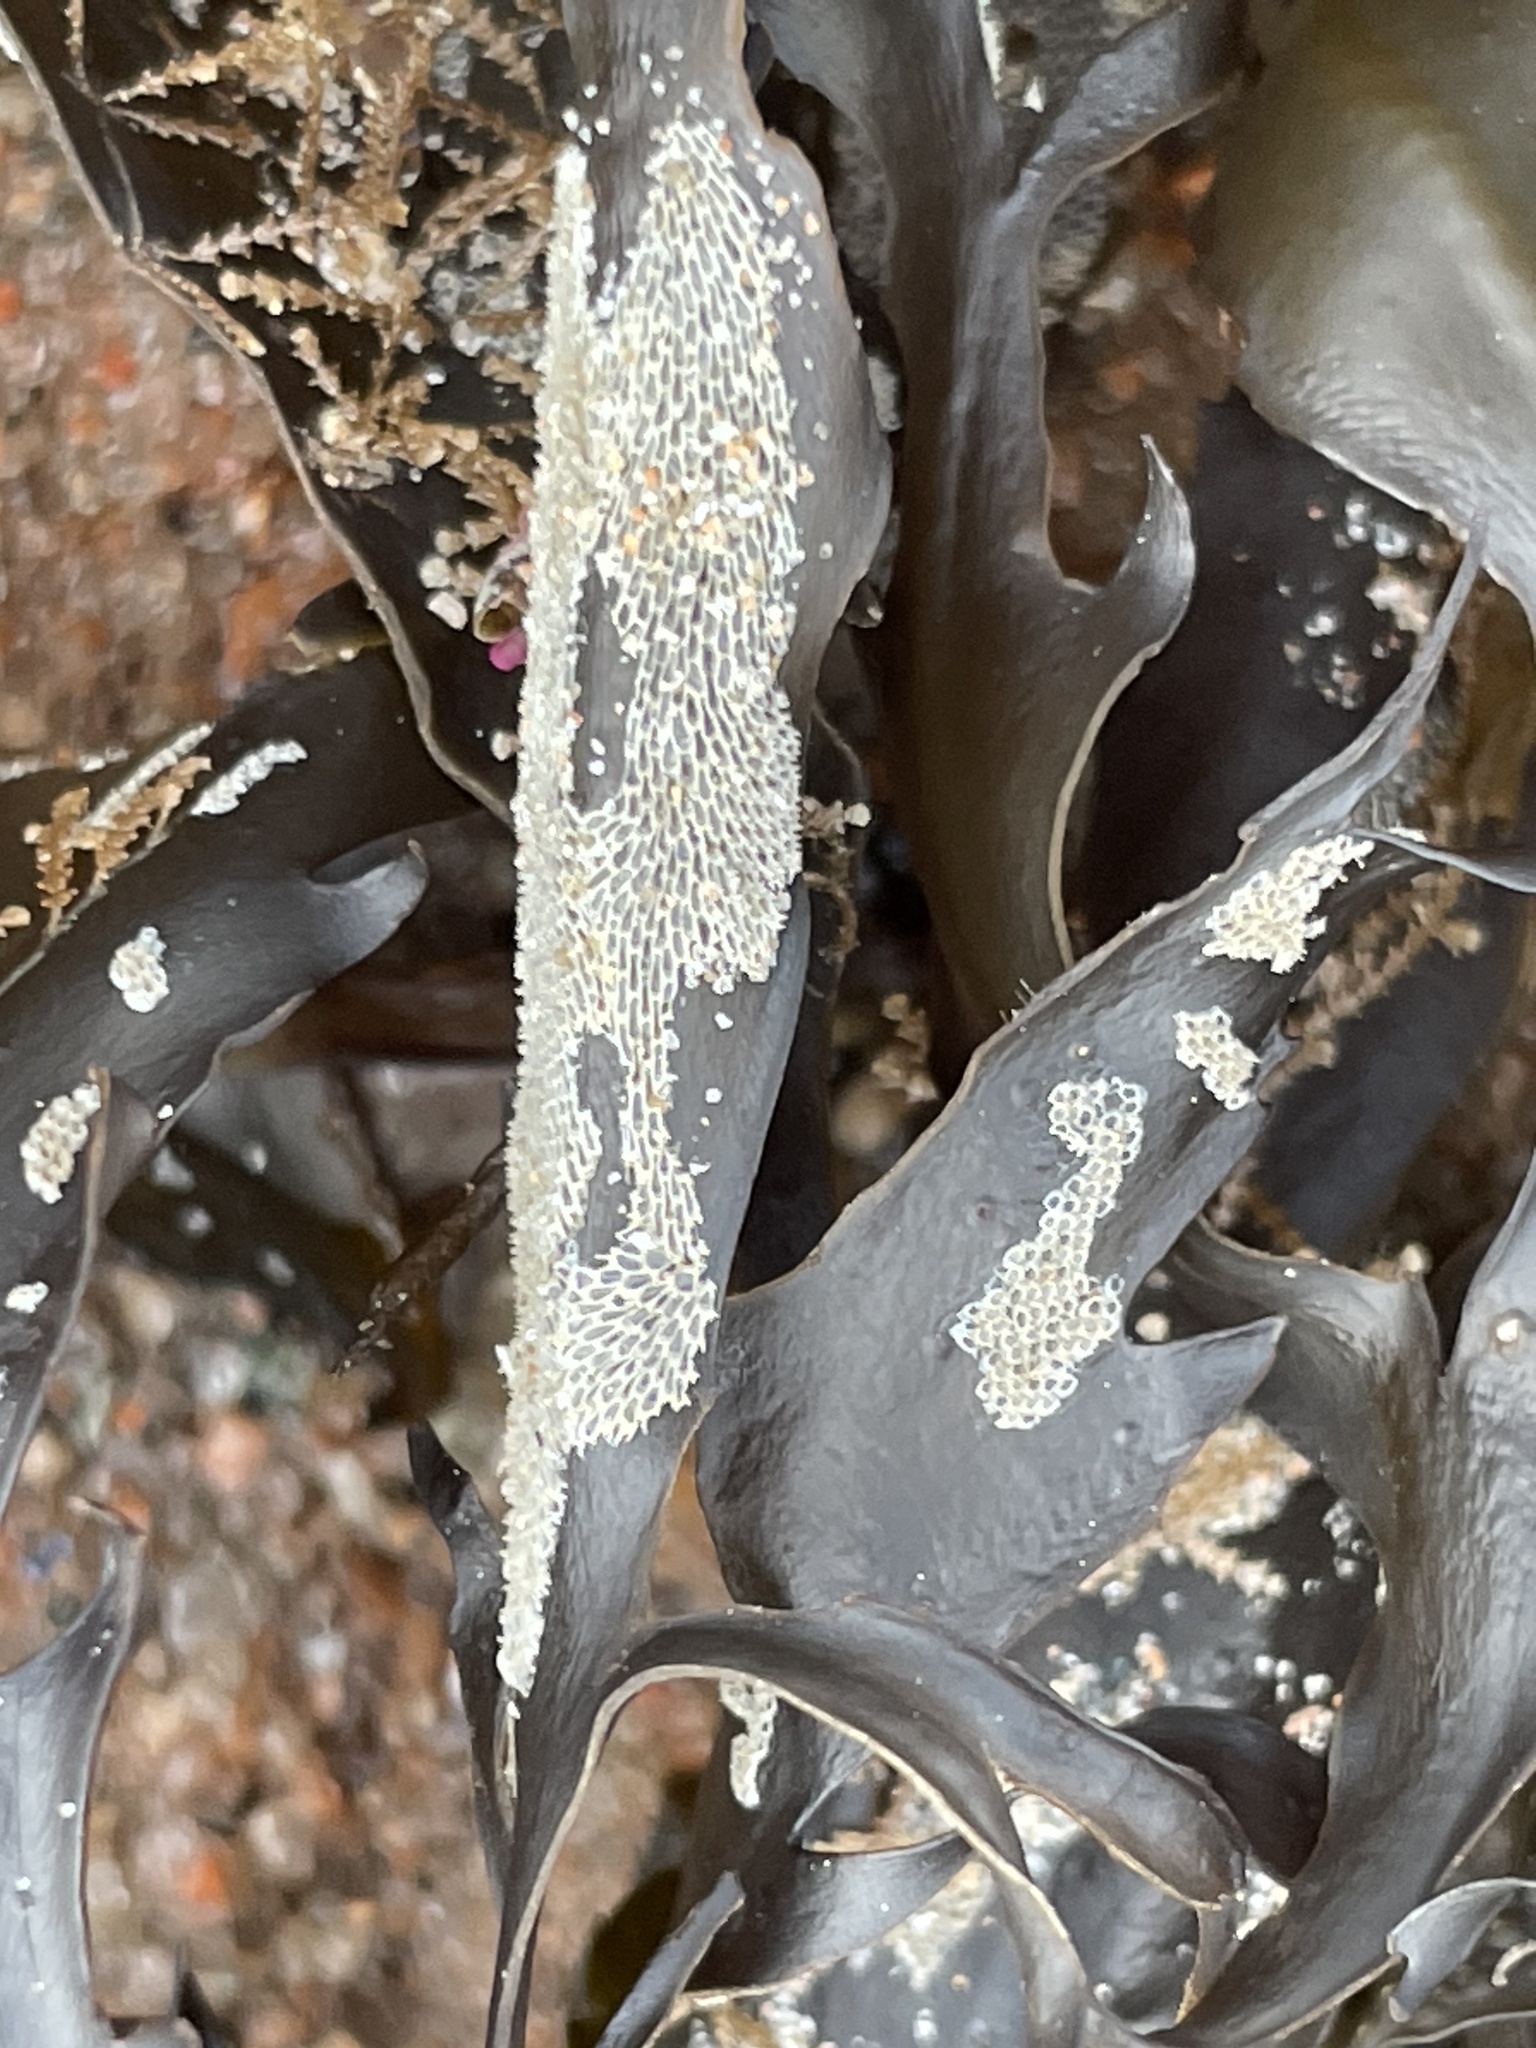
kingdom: Animalia
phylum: Bryozoa
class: Gymnolaemata
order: Cheilostomatida
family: Membraniporidae
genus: Membranipora
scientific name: Membranipora membranacea
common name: Sea mat
